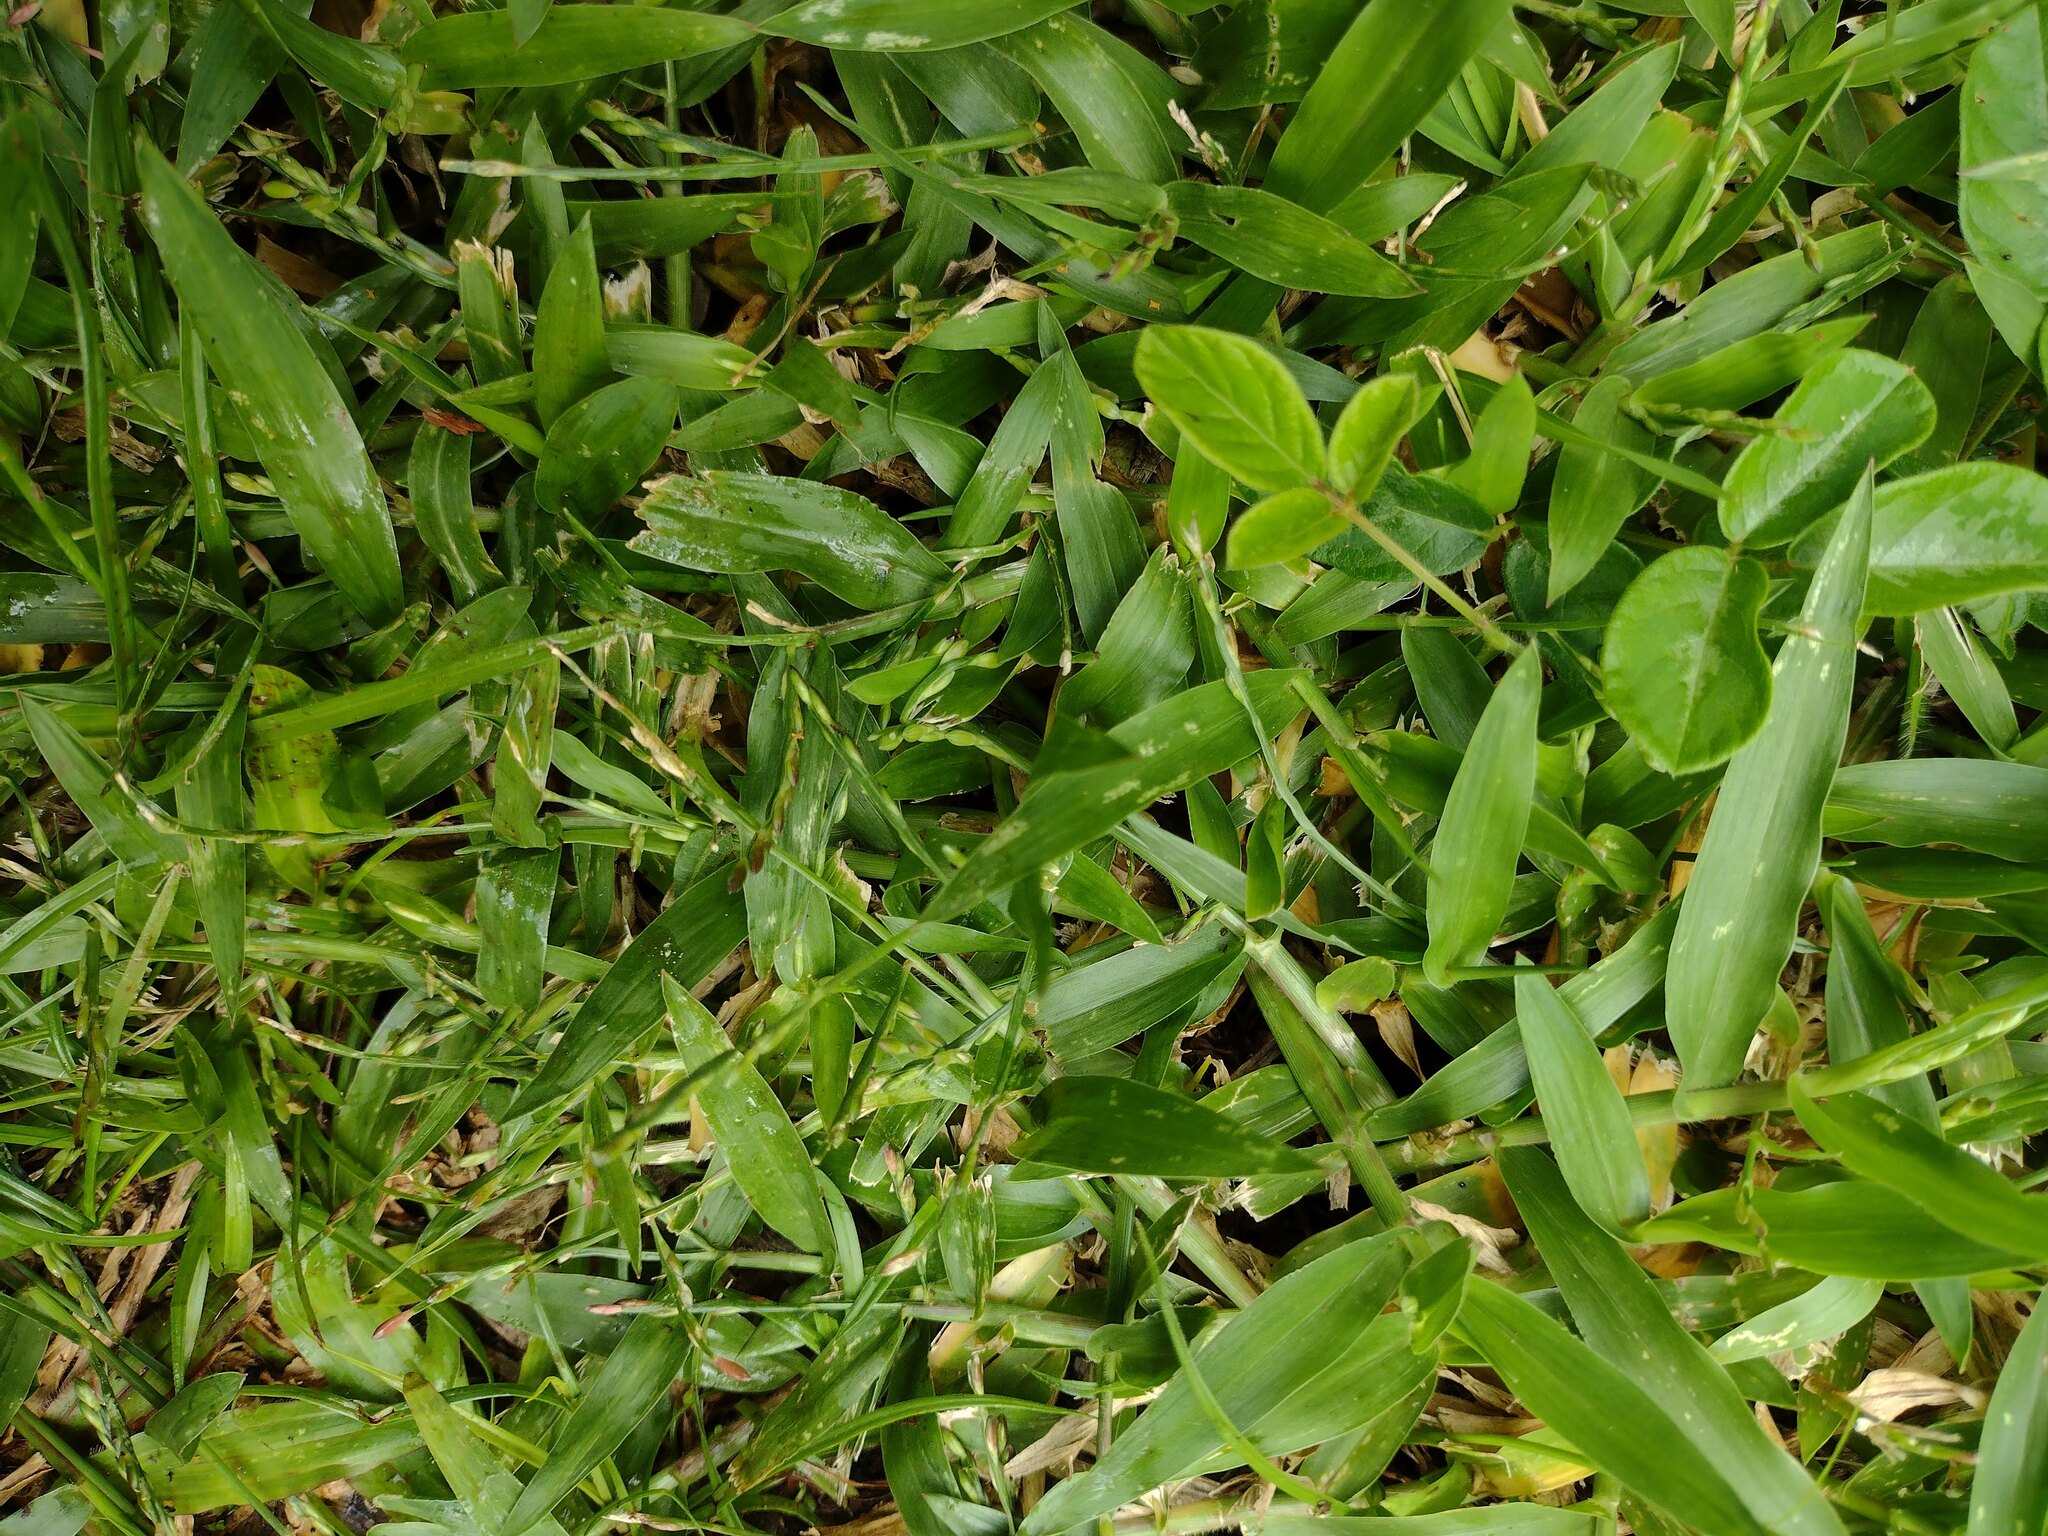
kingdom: Plantae
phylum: Tracheophyta
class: Liliopsida
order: Poales
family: Poaceae
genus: Urochloa
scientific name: Urochloa distachyos
